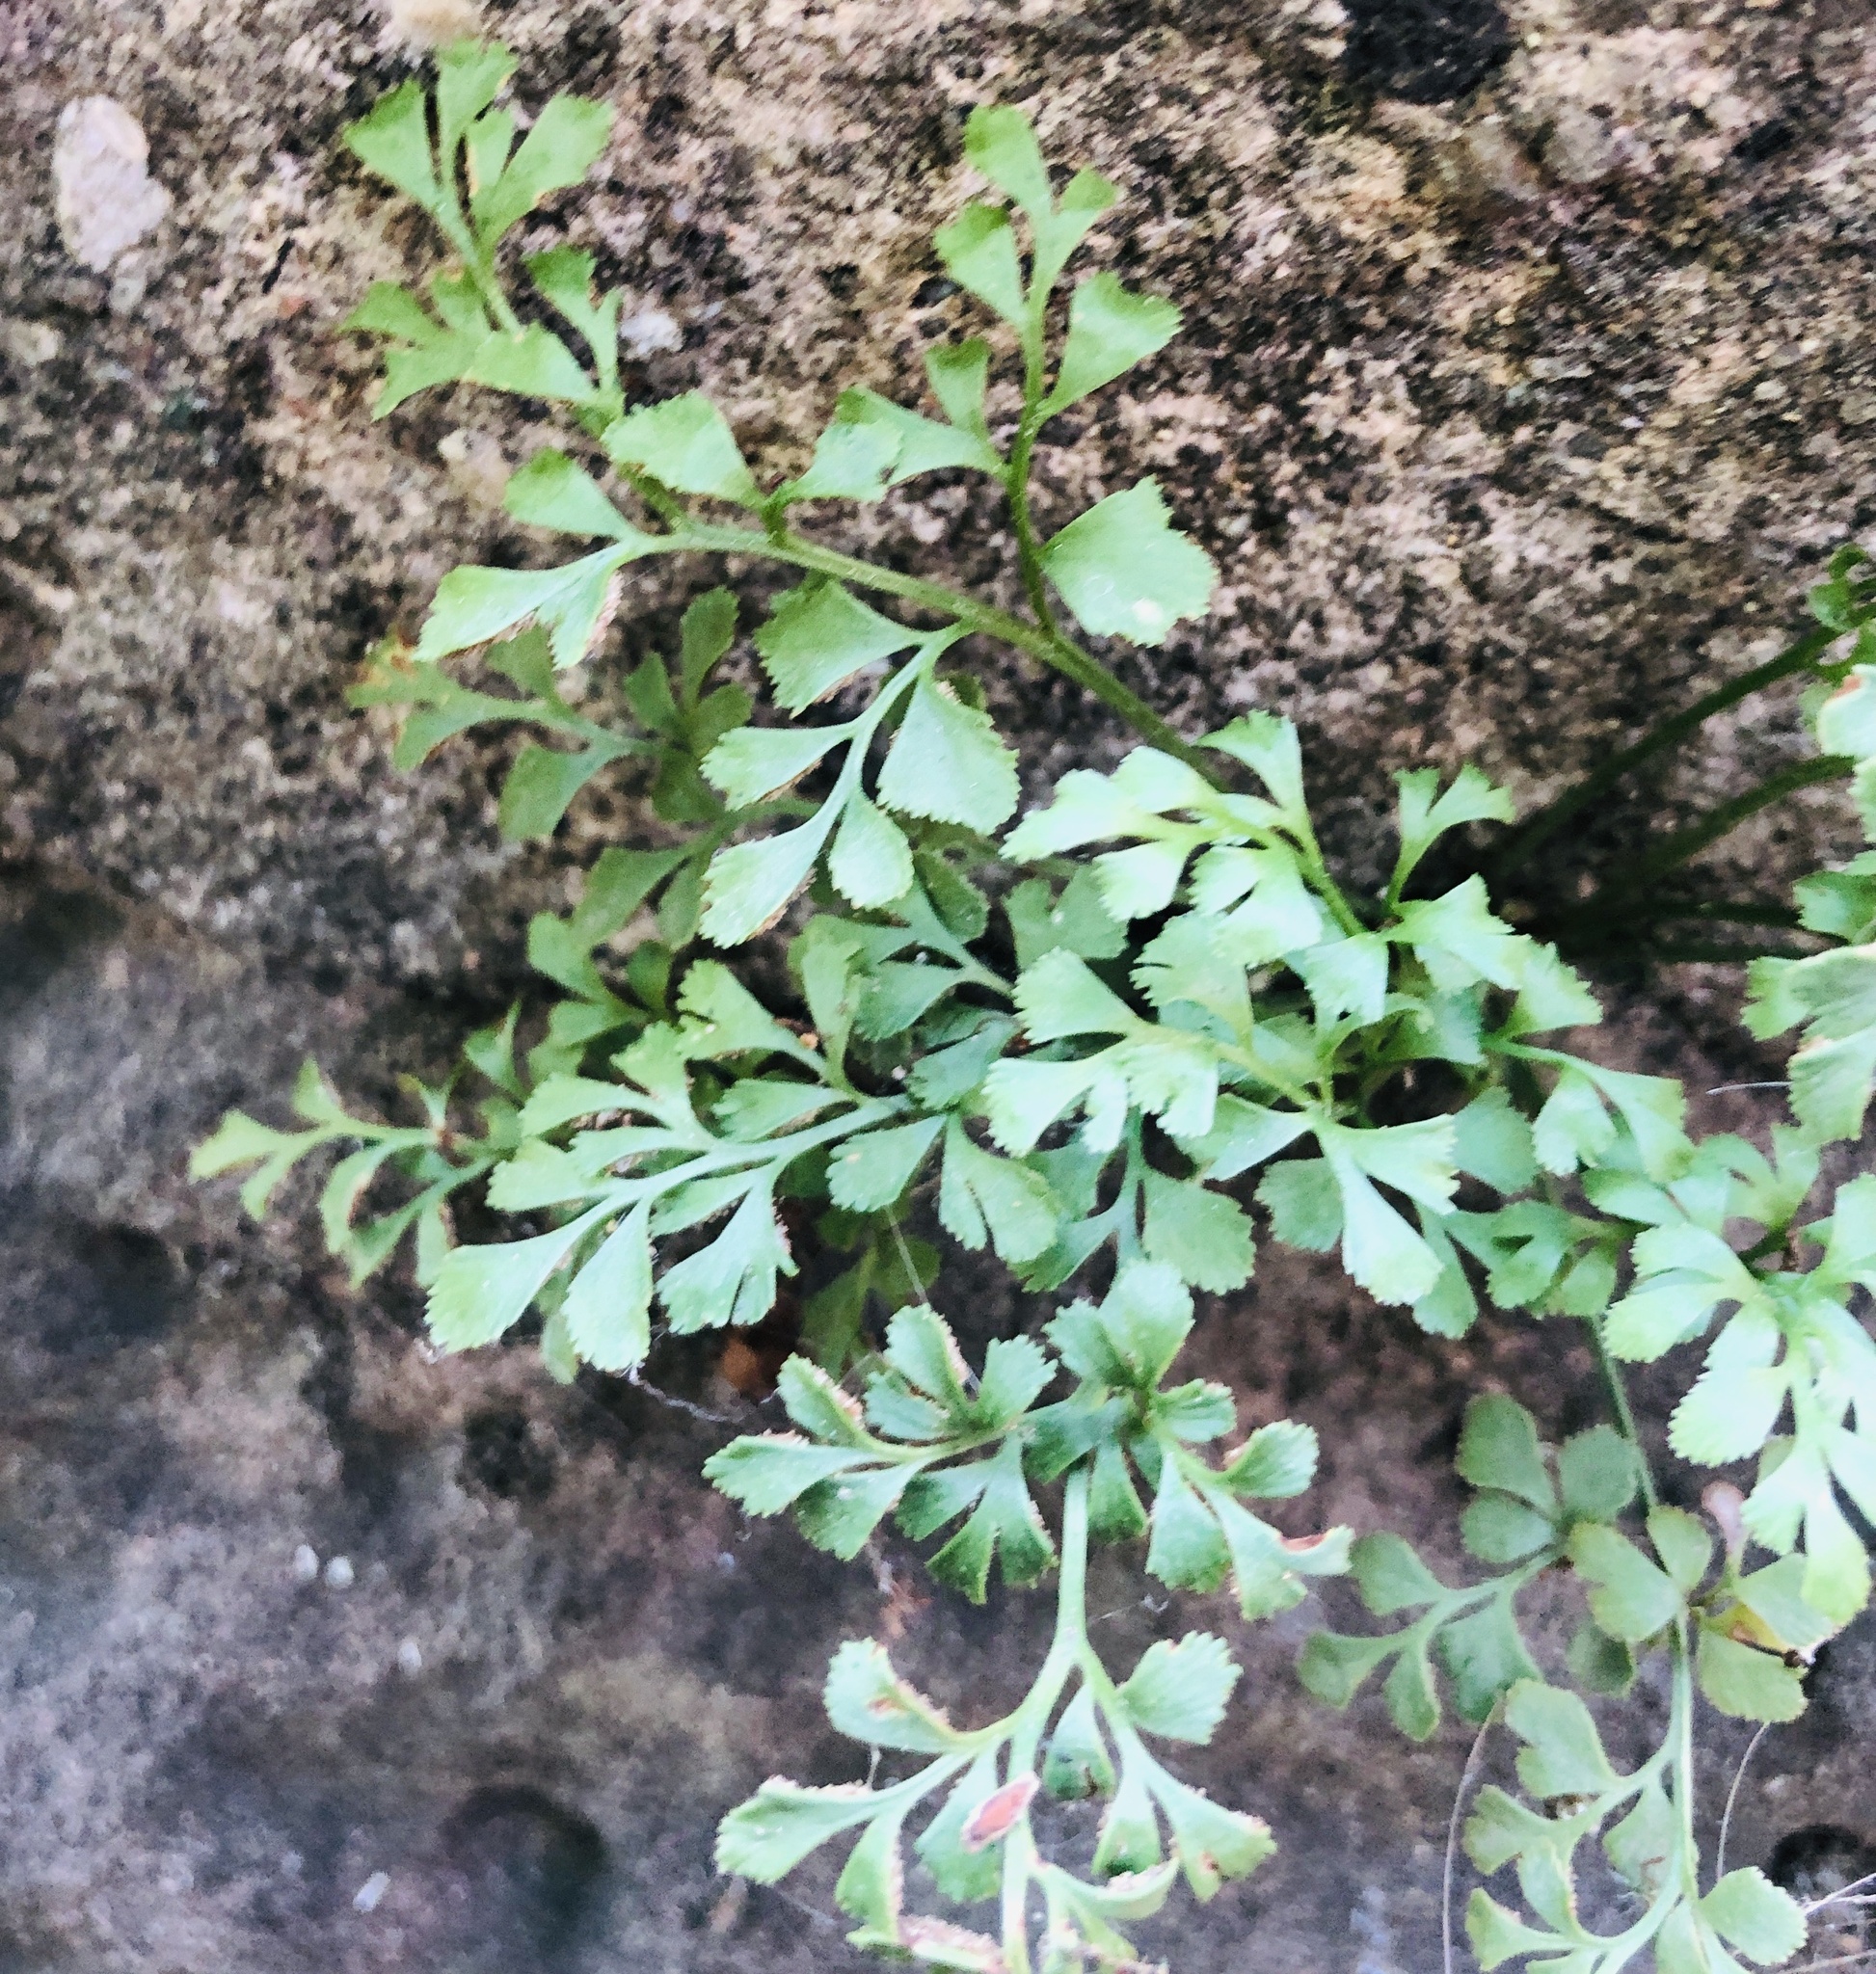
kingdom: Plantae
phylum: Tracheophyta
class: Polypodiopsida
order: Polypodiales
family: Aspleniaceae
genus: Asplenium
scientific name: Asplenium ruta-muraria
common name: Wall-rue
